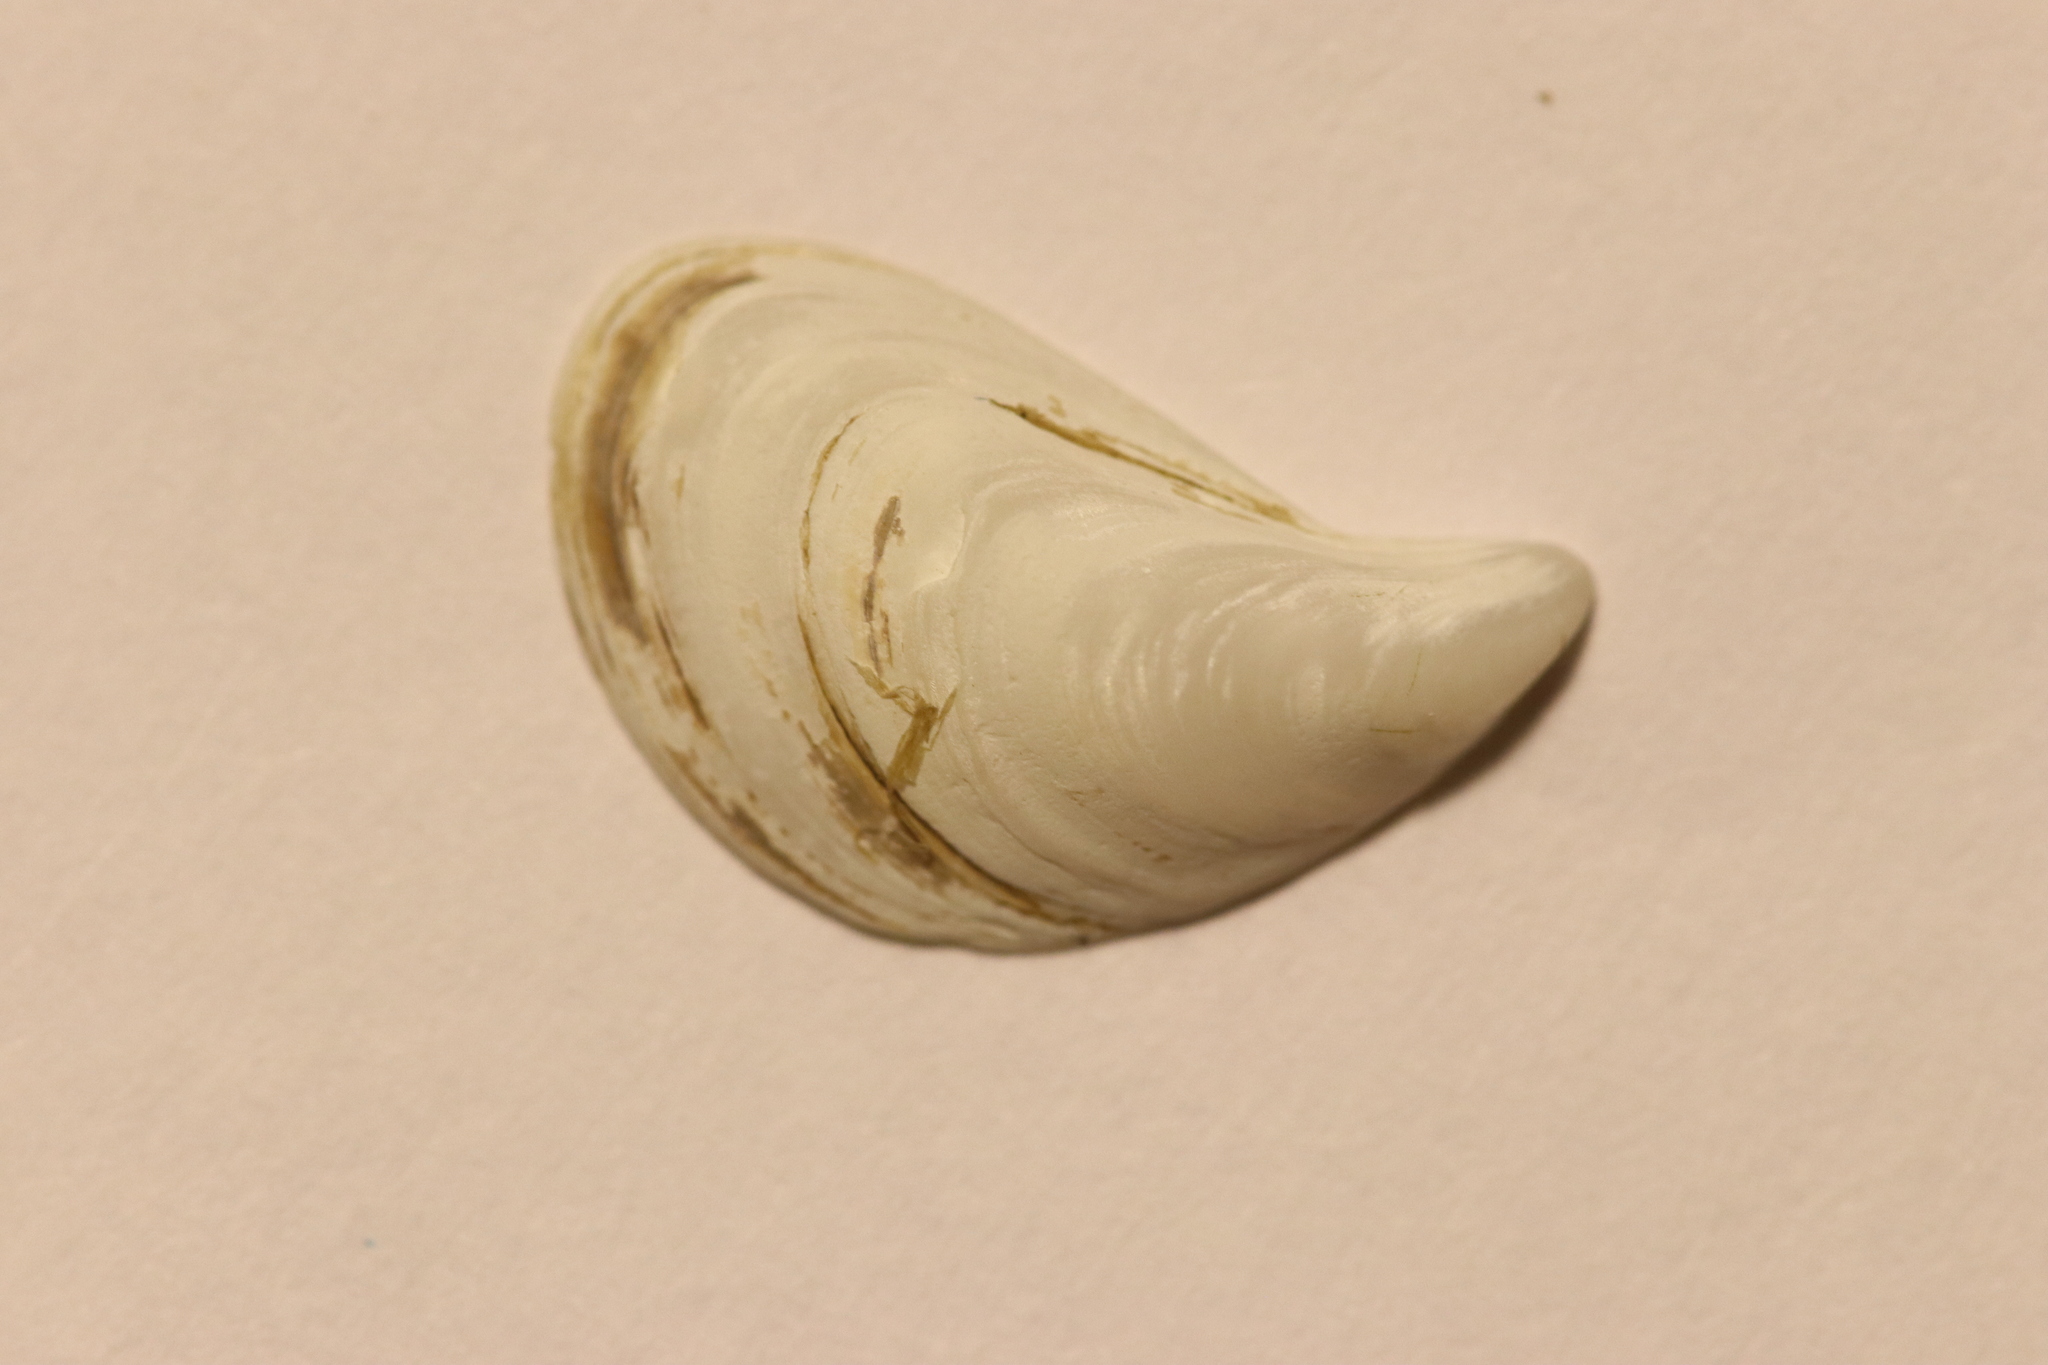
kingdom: Animalia
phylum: Mollusca
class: Bivalvia
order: Myida
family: Dreissenidae
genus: Dreissena
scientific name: Dreissena bugensis
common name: Quagga mussel
